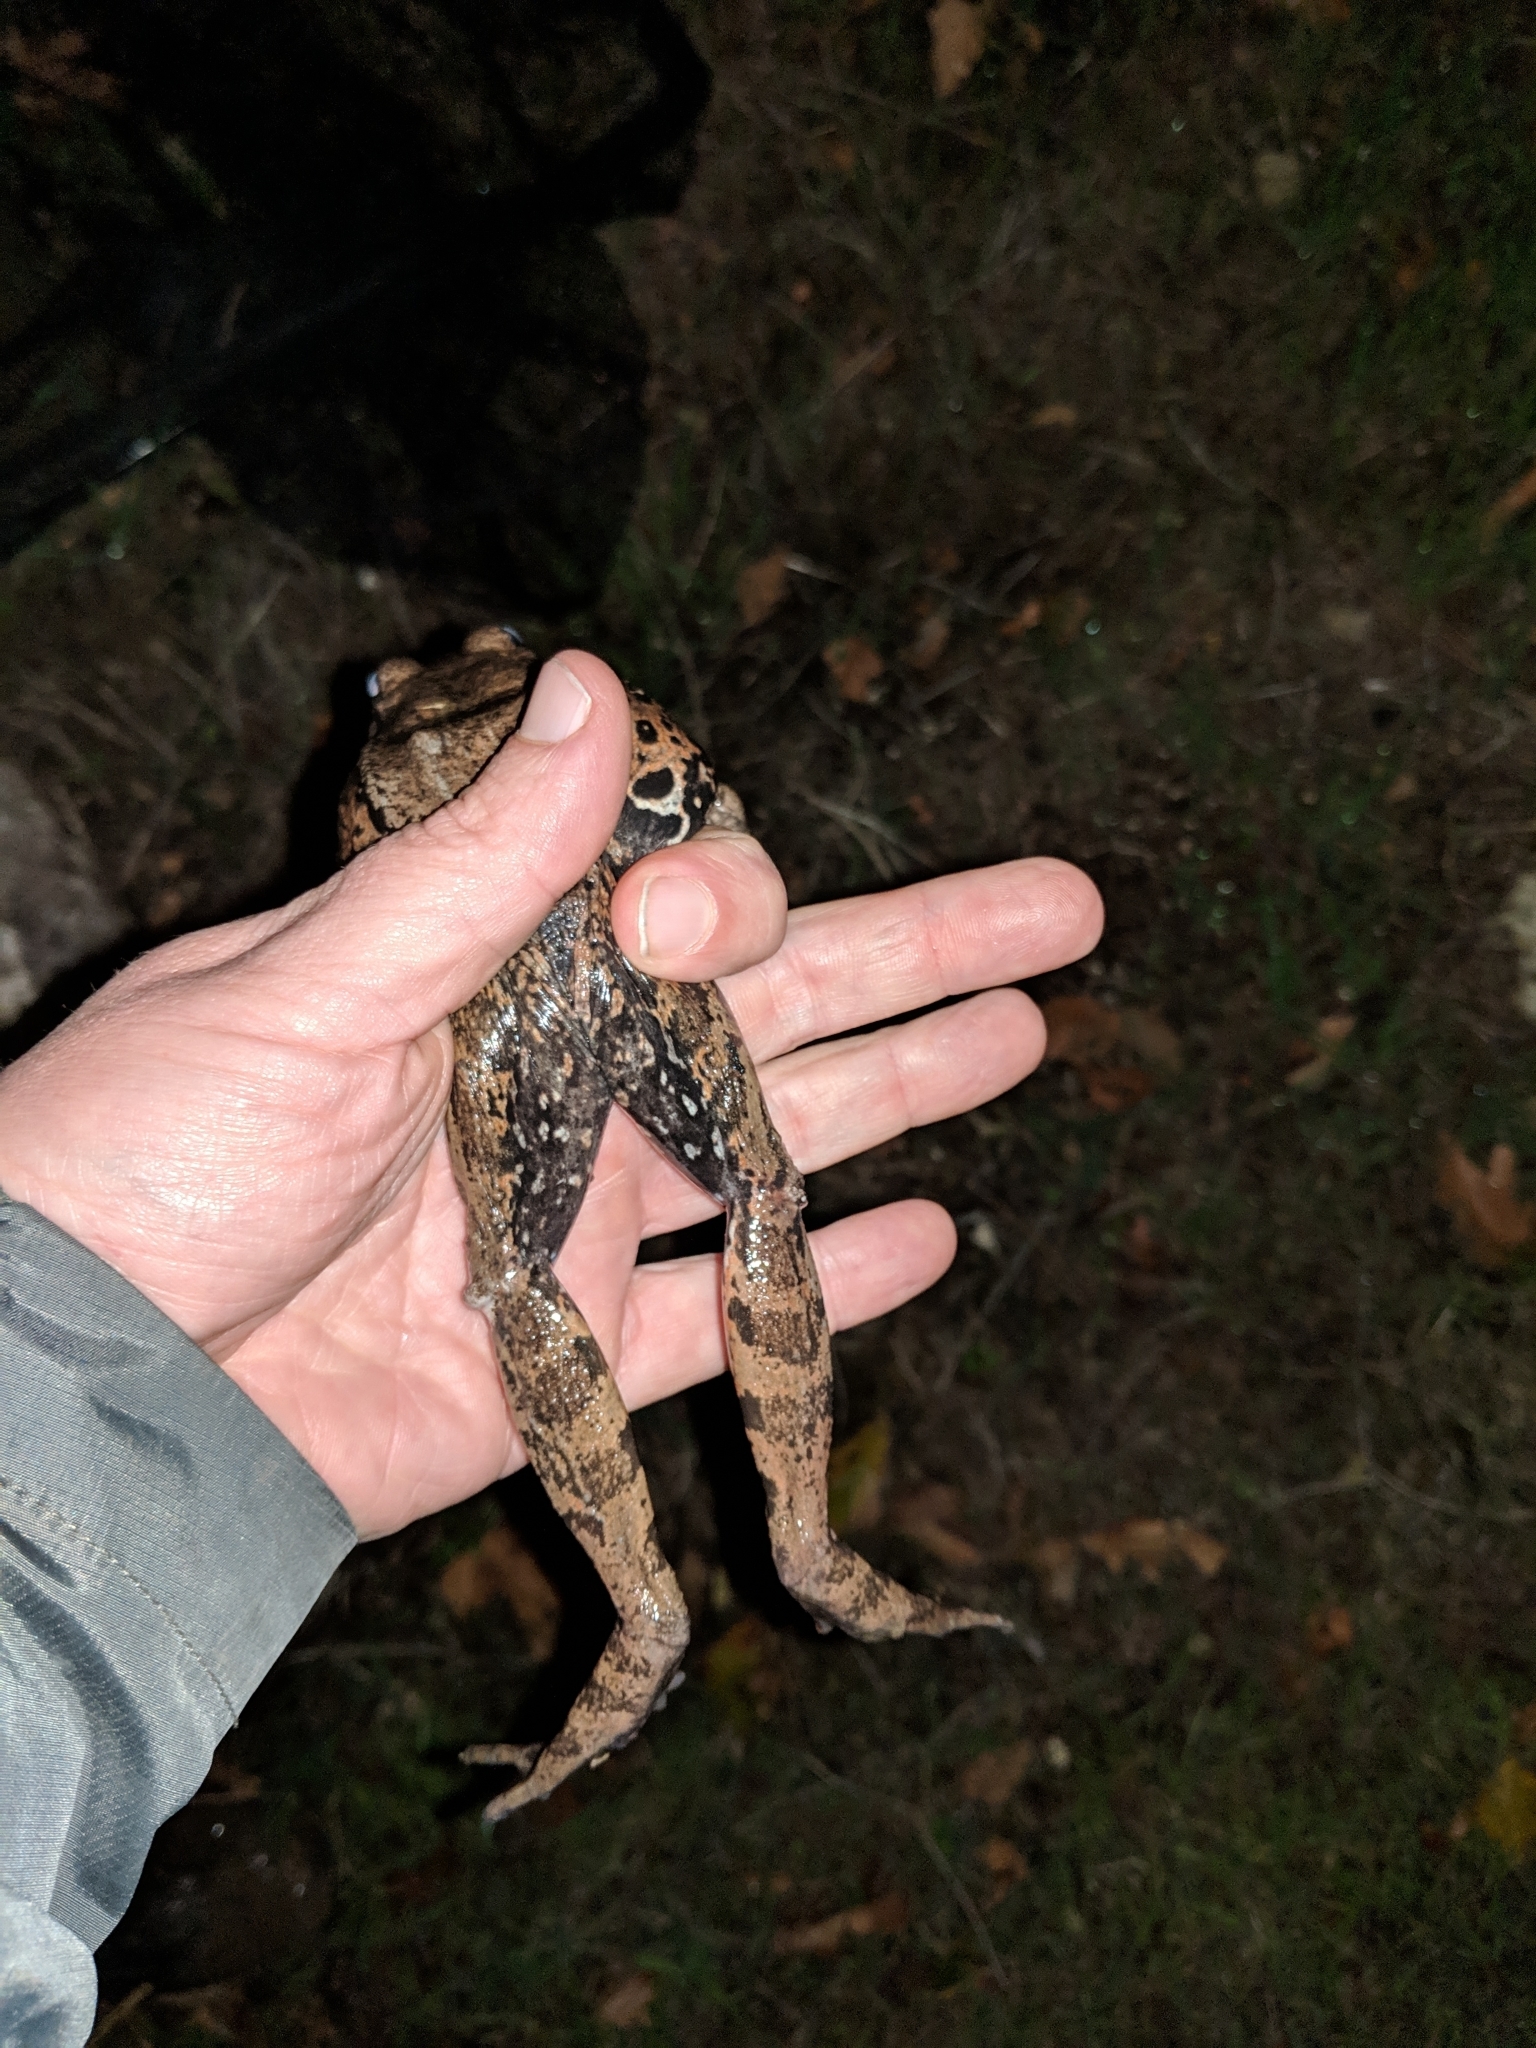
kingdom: Animalia
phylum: Chordata
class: Amphibia
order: Anura
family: Ranidae
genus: Rana
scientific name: Rana draytonii
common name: California red-legged frog
